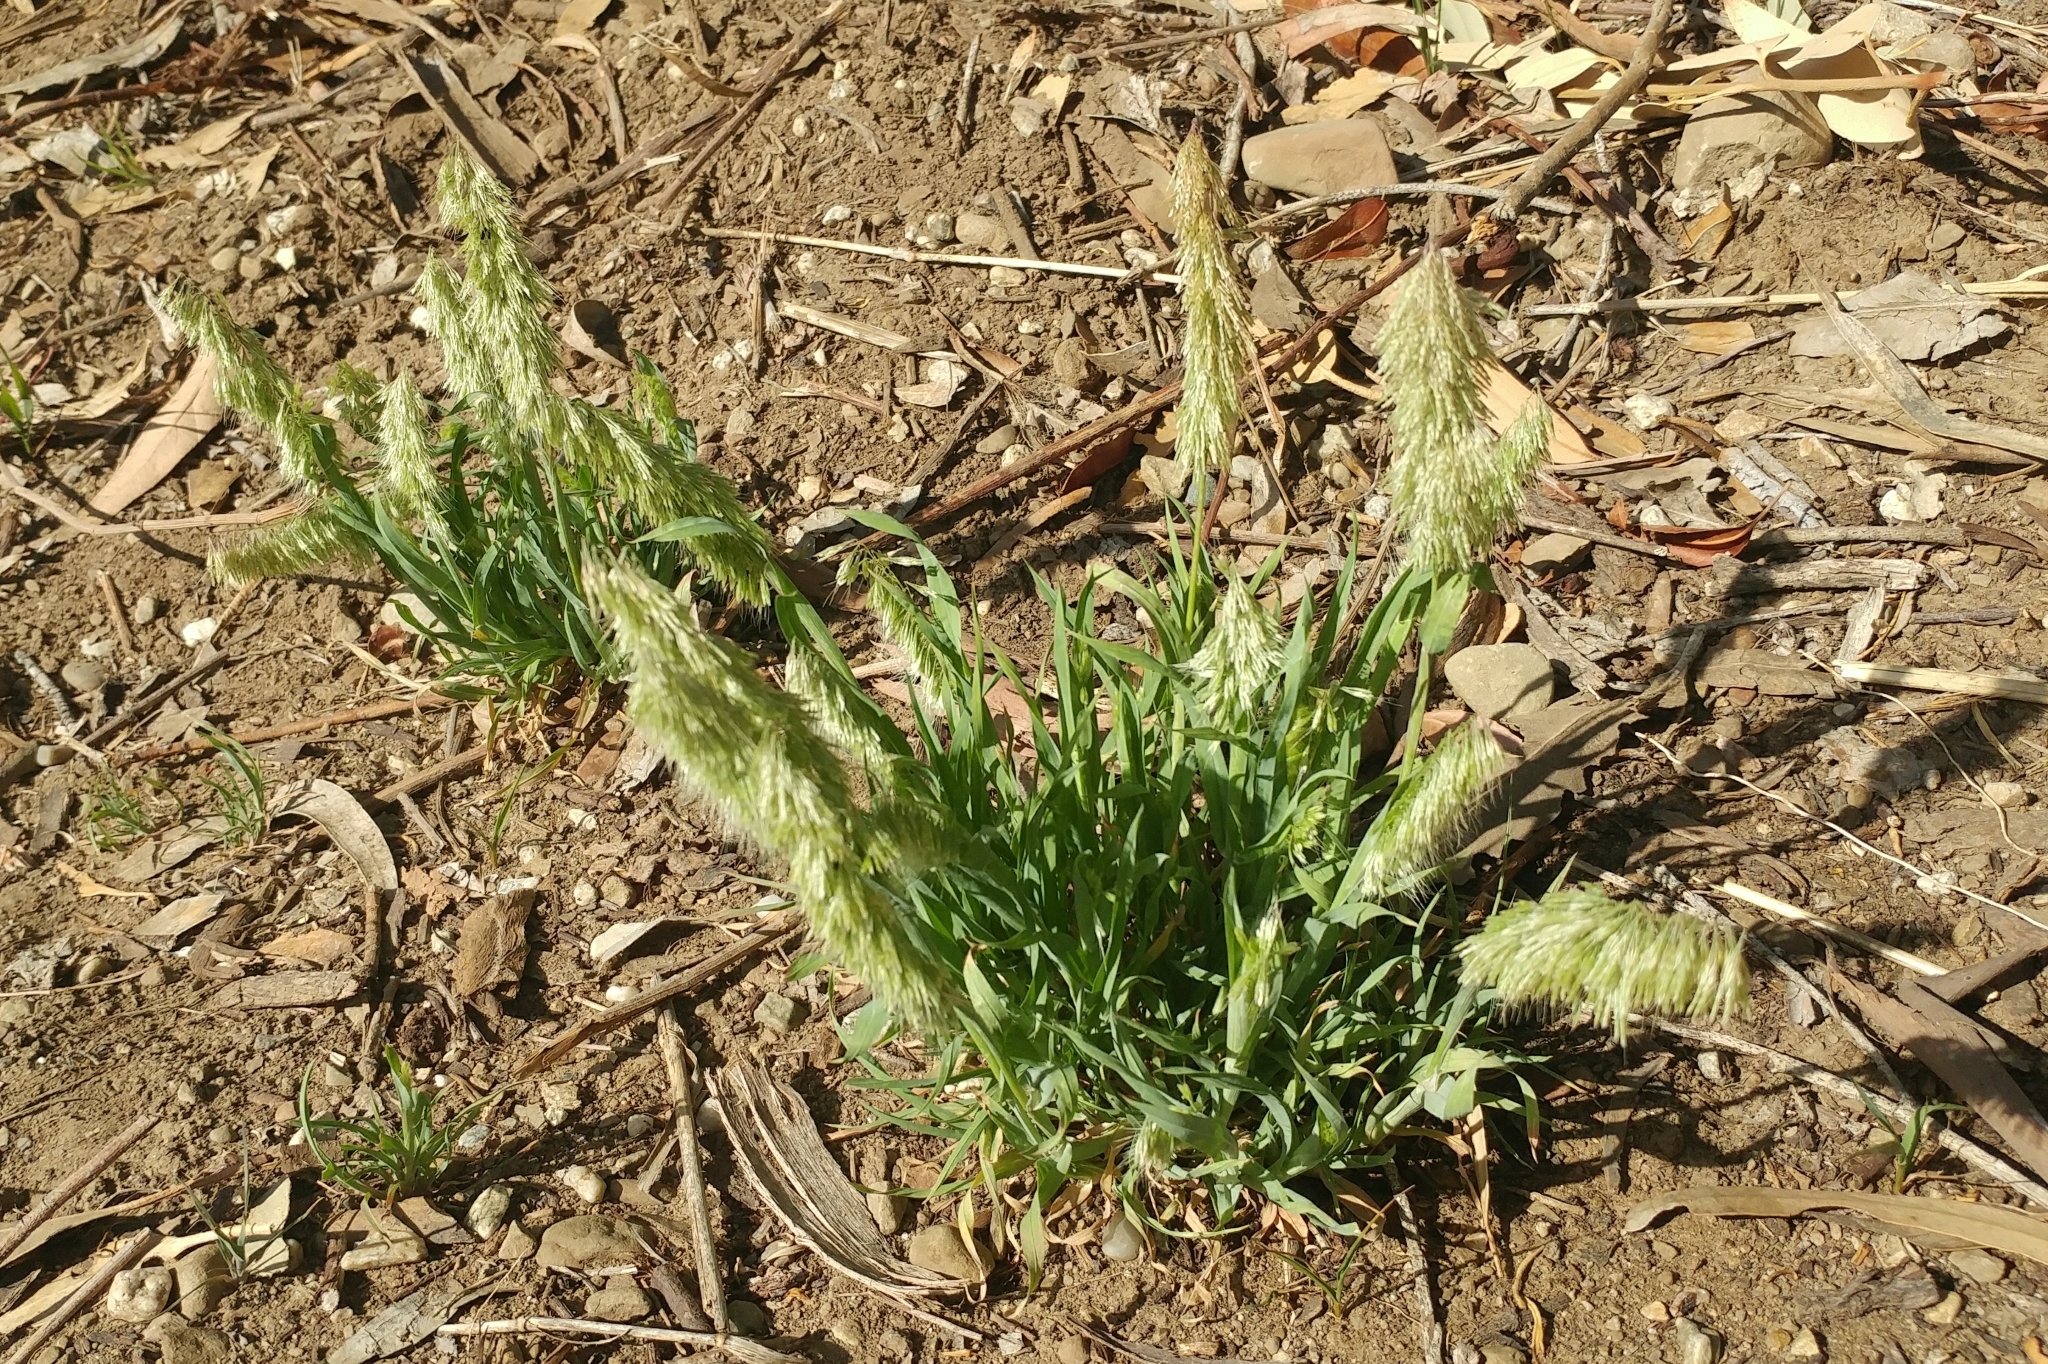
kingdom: Plantae
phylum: Tracheophyta
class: Liliopsida
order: Poales
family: Poaceae
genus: Lamarckia
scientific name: Lamarckia aurea
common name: Golden dog's-tail
